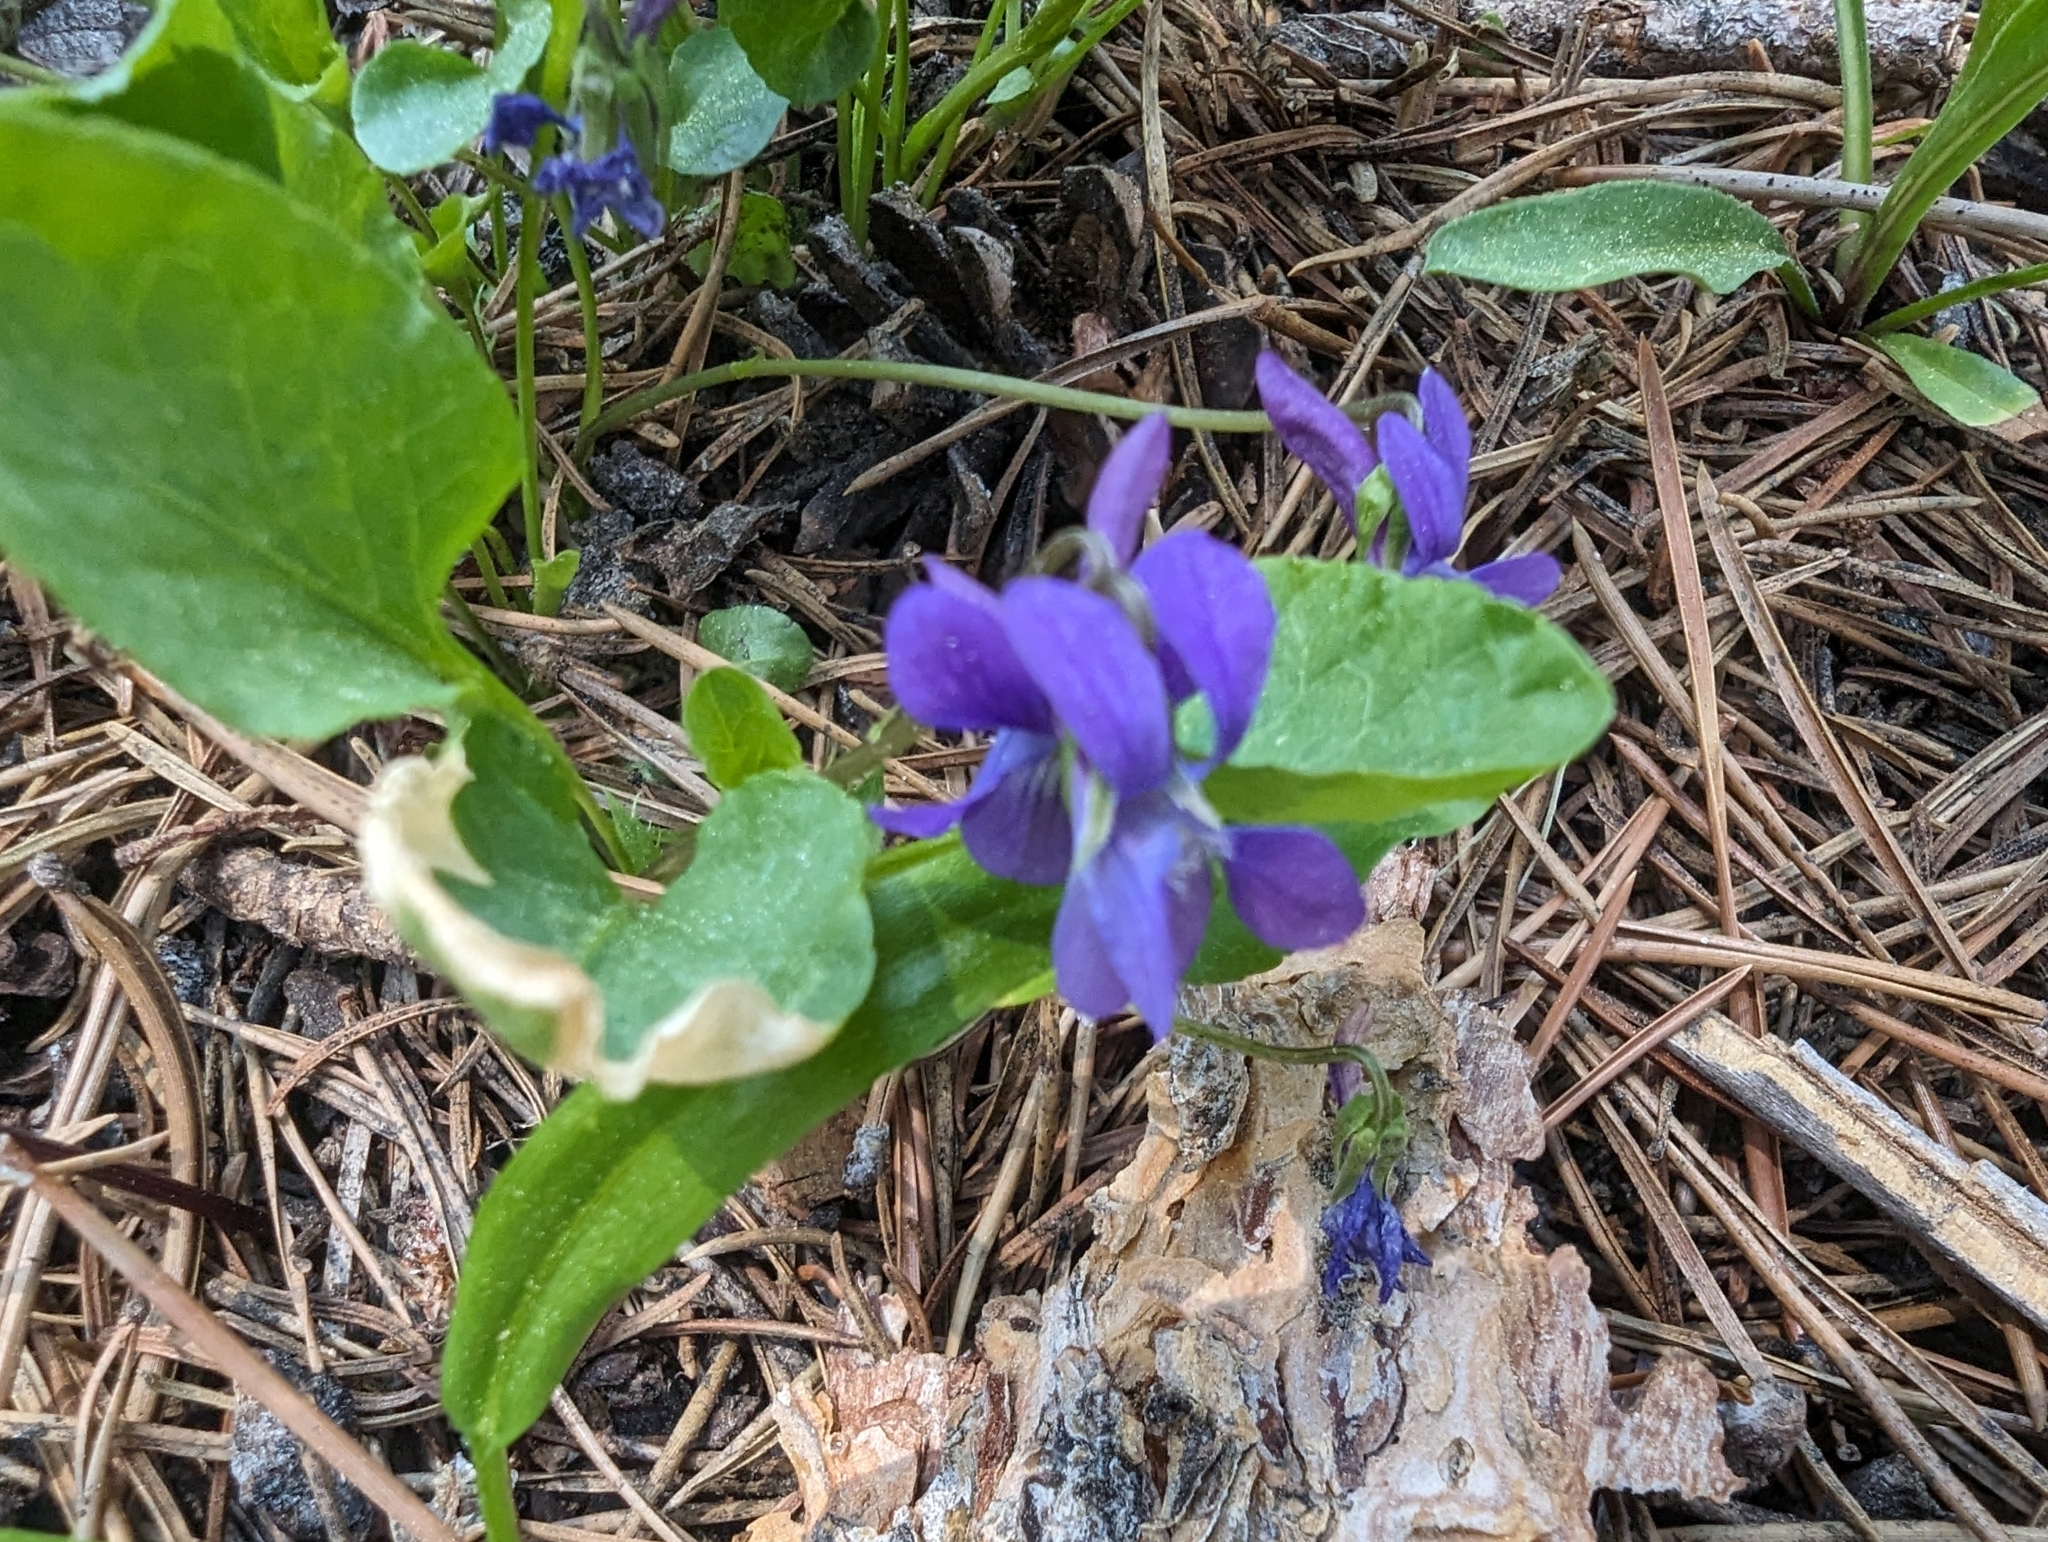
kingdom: Plantae
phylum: Tracheophyta
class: Magnoliopsida
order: Malpighiales
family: Violaceae
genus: Viola
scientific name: Viola adunca
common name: Sand violet
